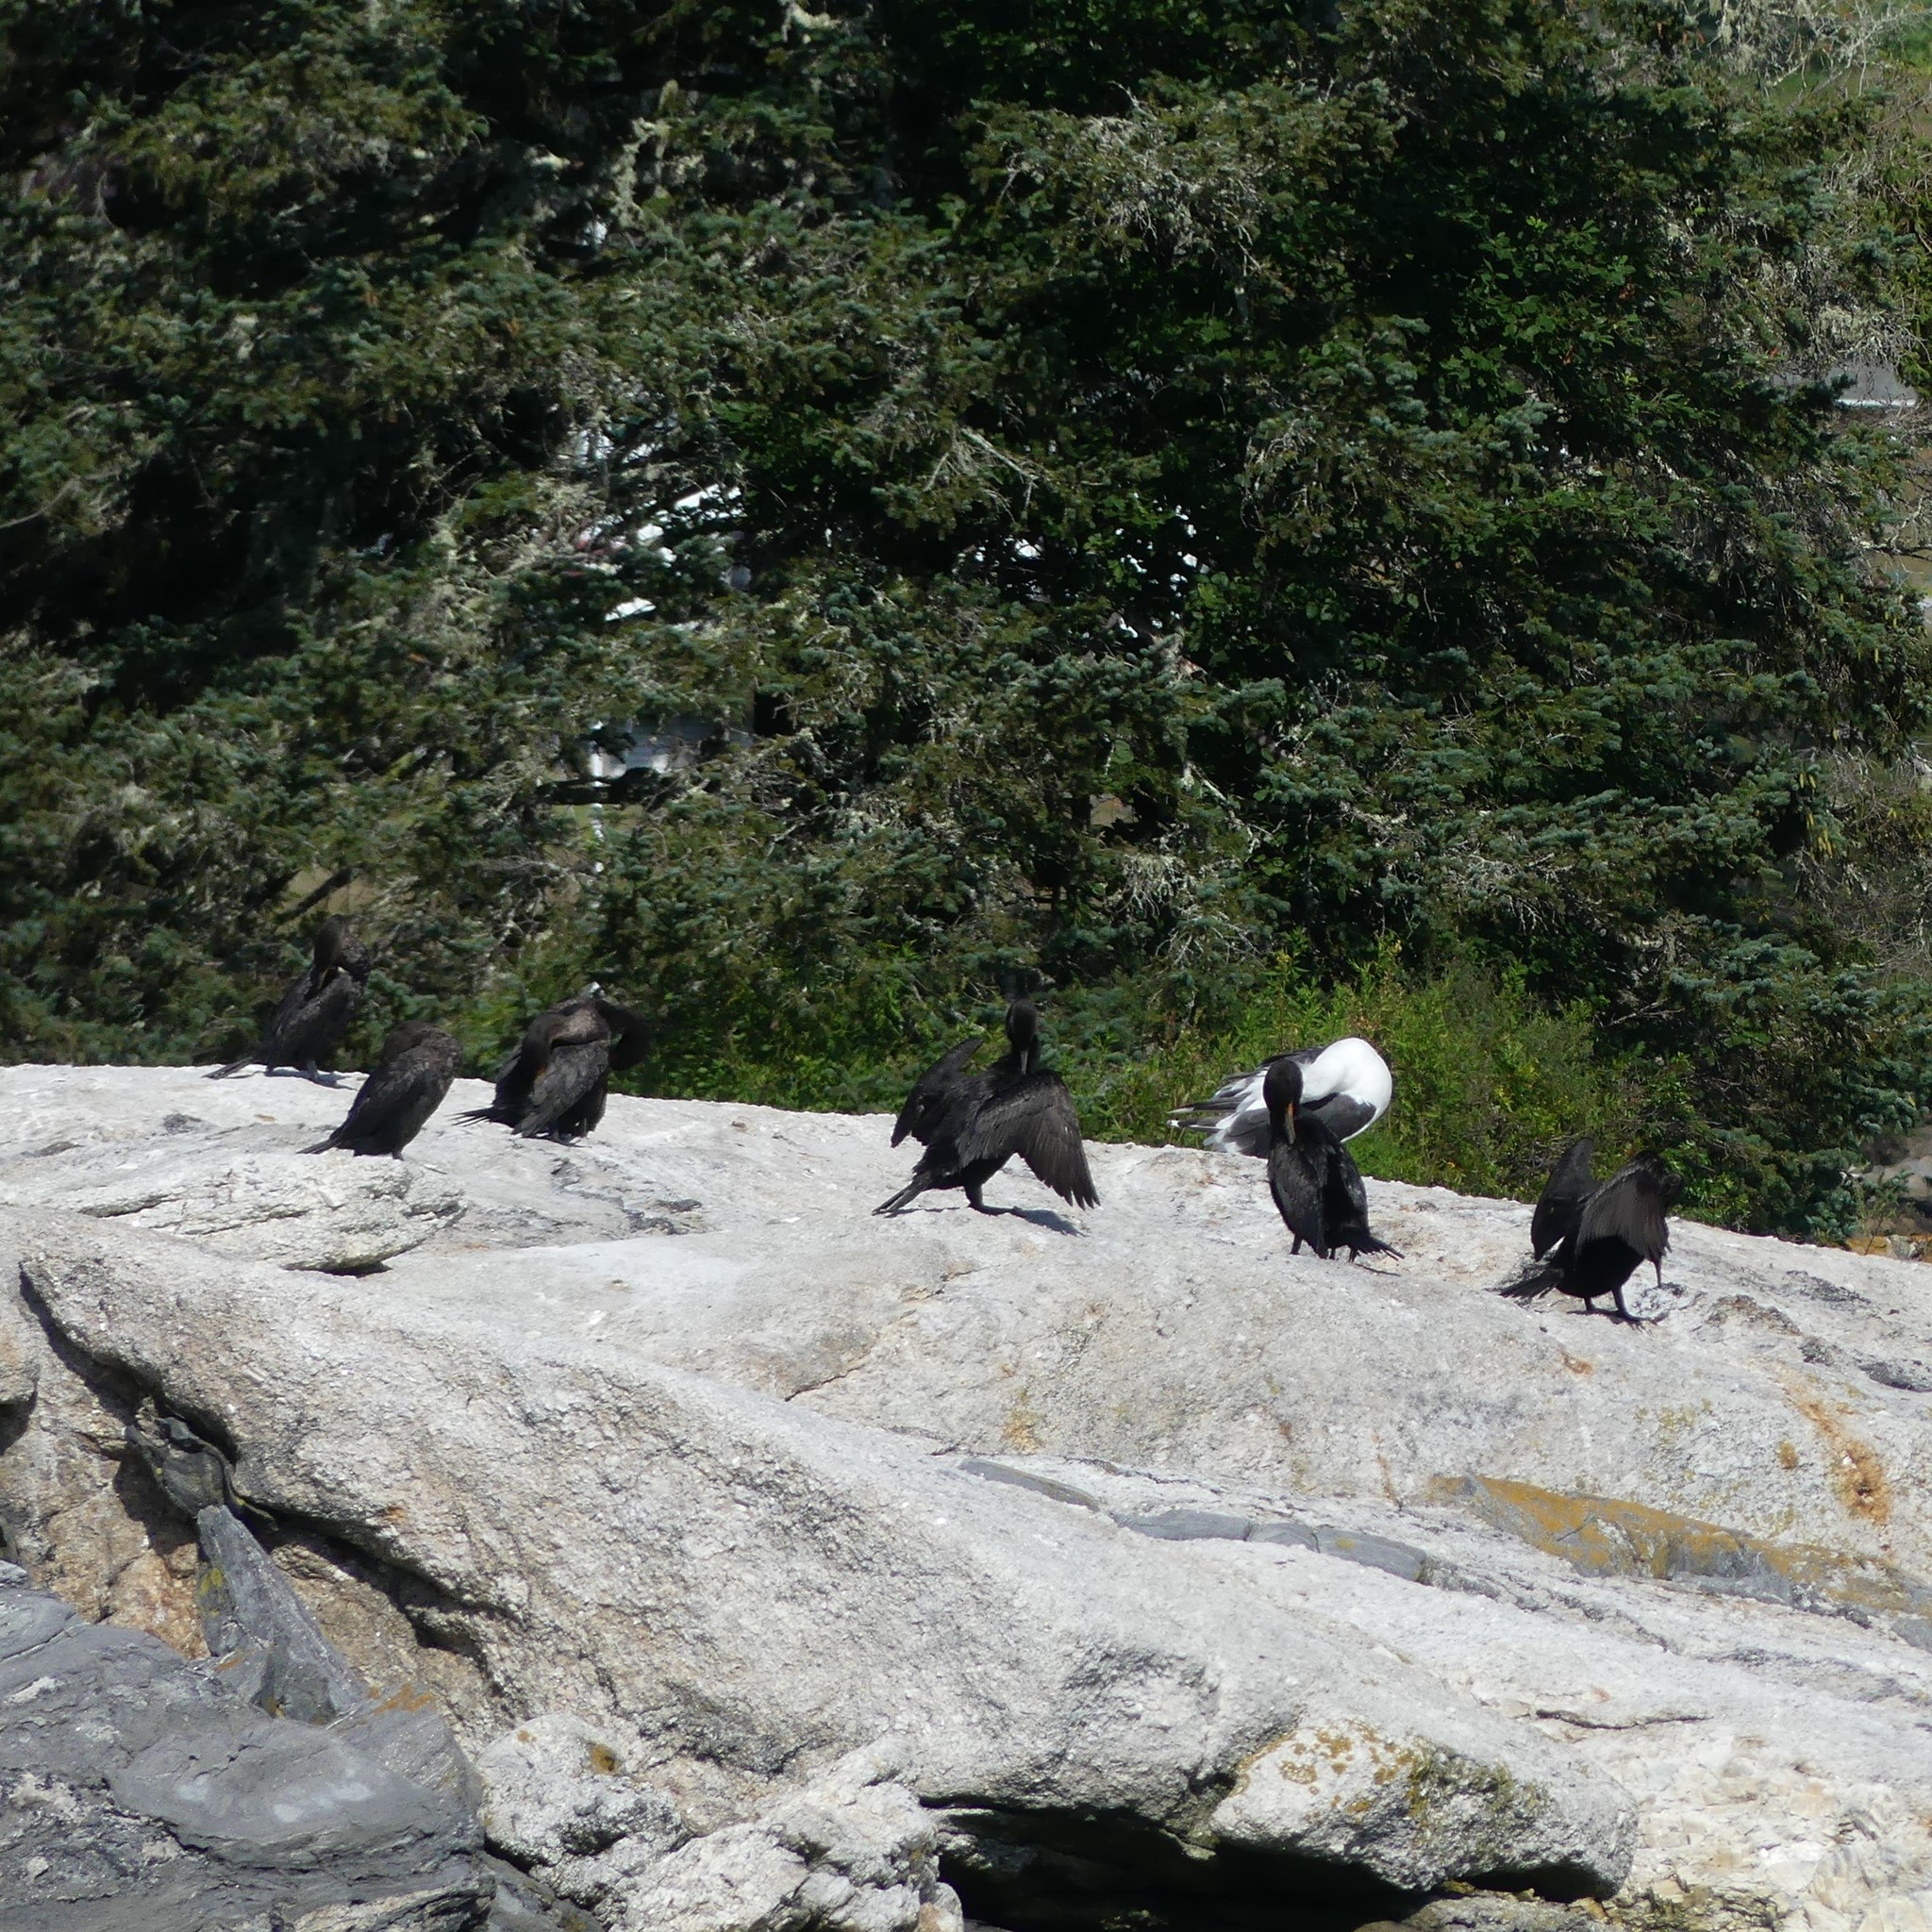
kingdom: Animalia
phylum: Chordata
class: Aves
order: Suliformes
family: Phalacrocoracidae
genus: Phalacrocorax
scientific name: Phalacrocorax auritus
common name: Double-crested cormorant
